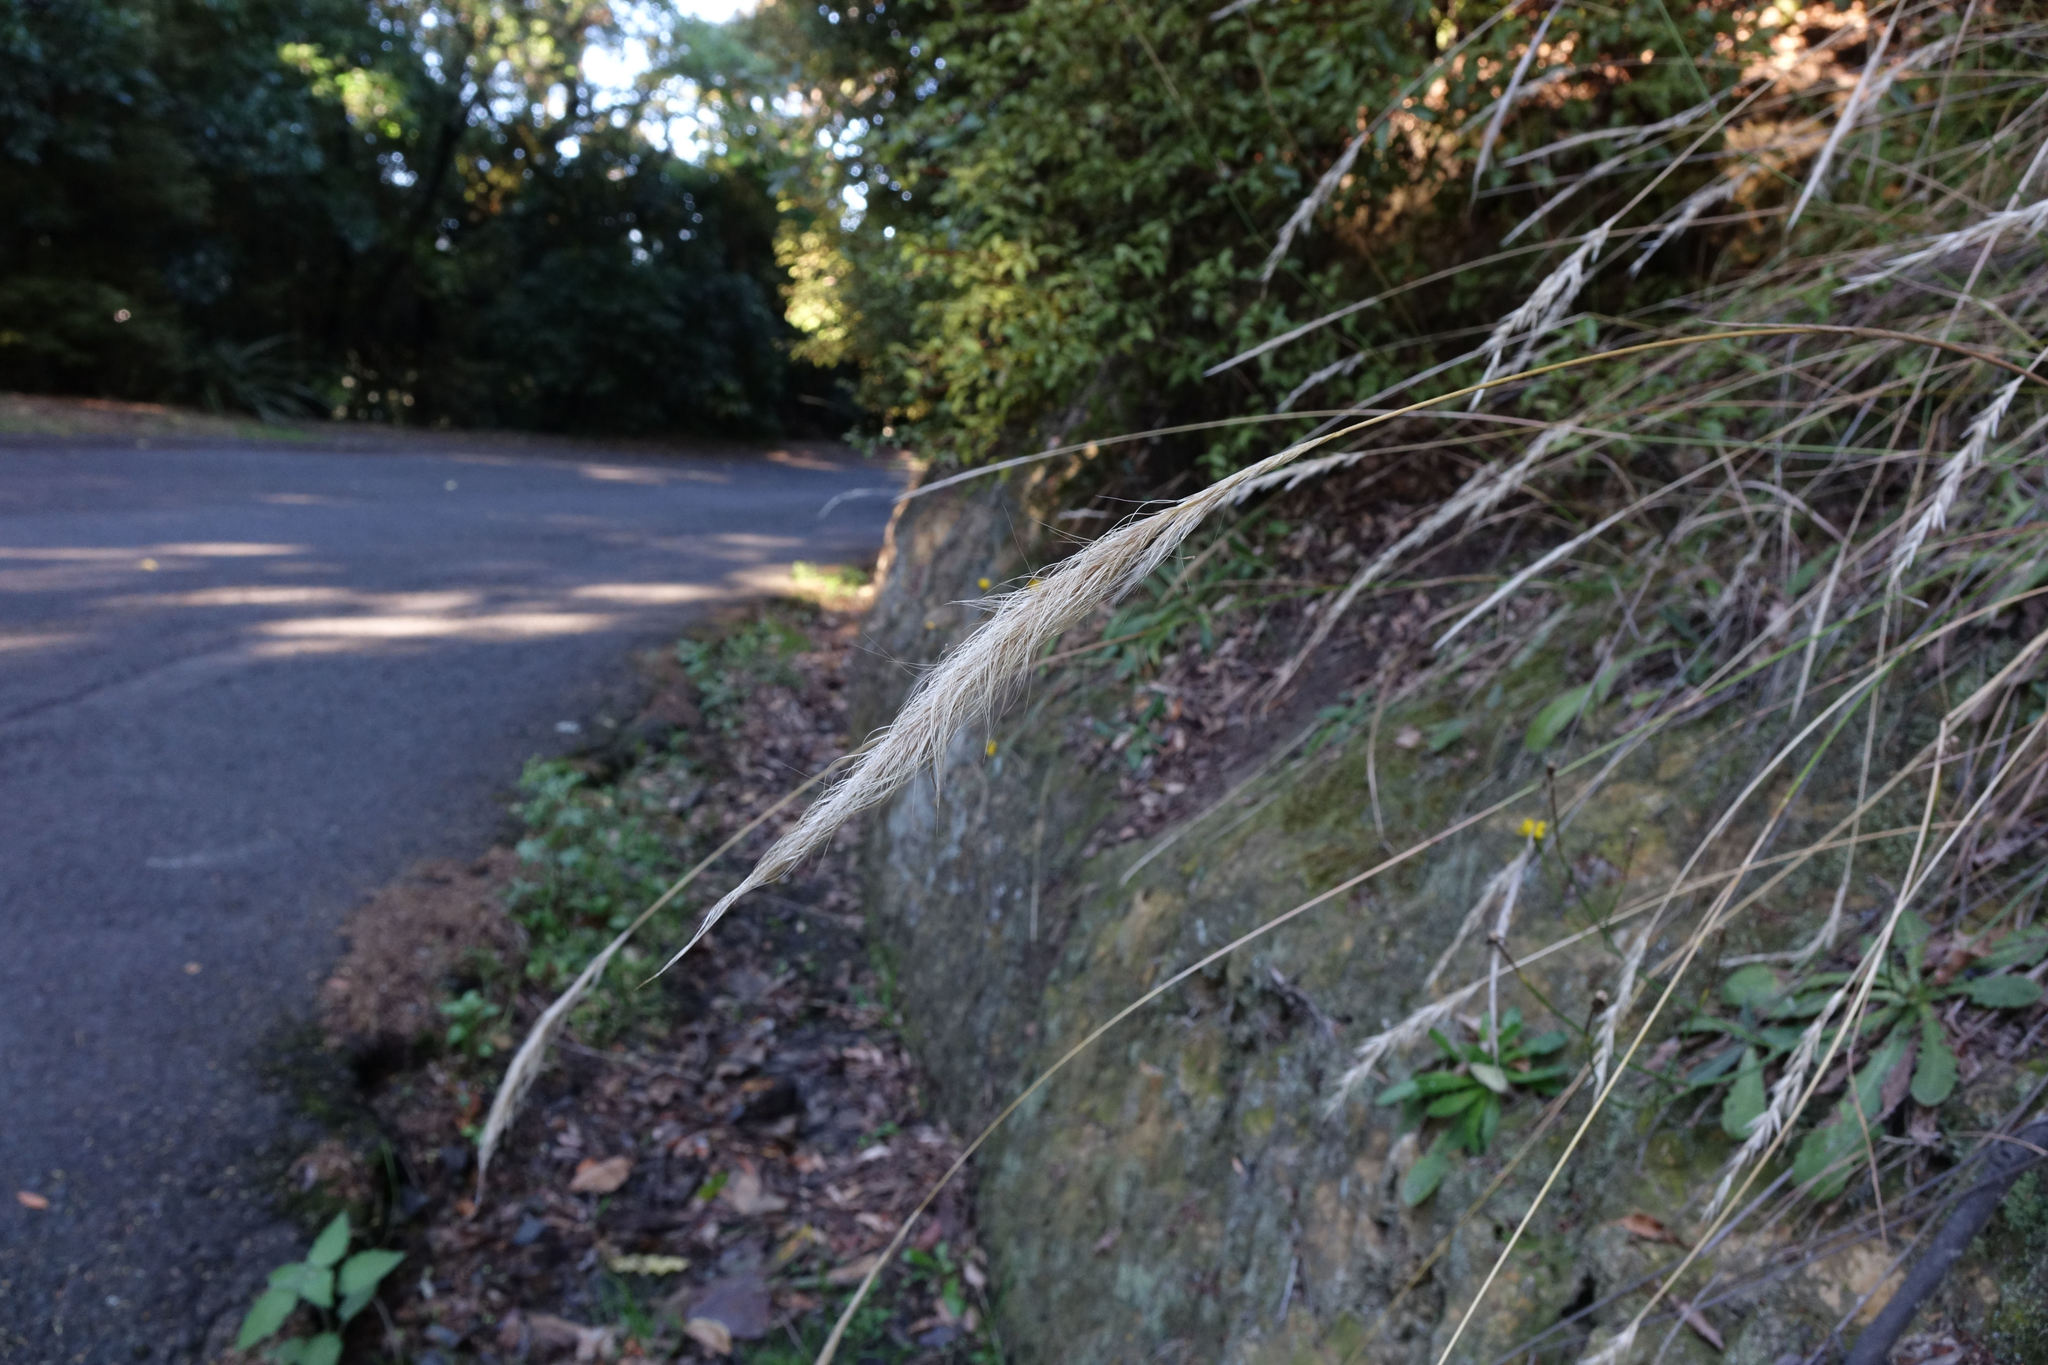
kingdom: Plantae
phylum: Tracheophyta
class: Liliopsida
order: Poales
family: Poaceae
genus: Dichelachne
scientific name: Dichelachne crinita
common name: Clovenfoot plumegrass
